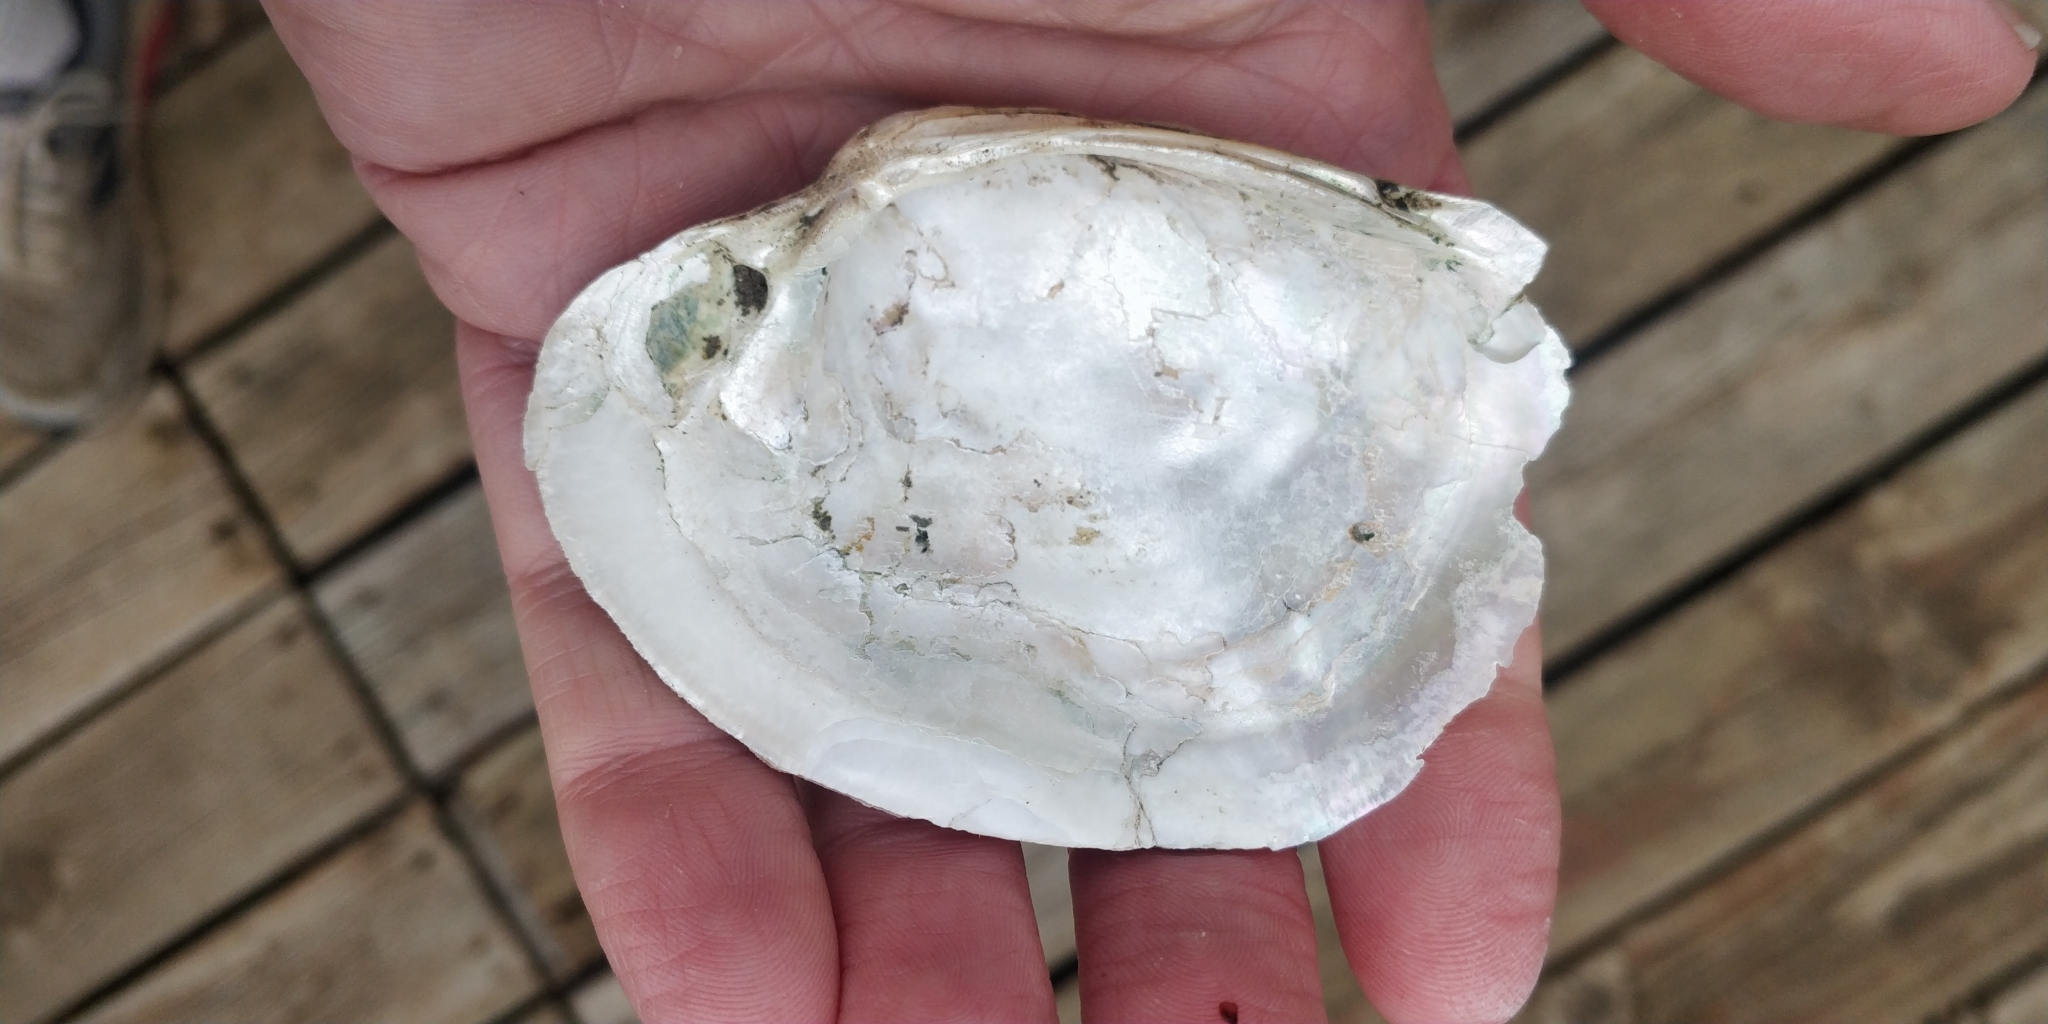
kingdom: Animalia
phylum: Mollusca
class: Bivalvia
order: Unionida
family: Unionidae
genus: Lampsilis
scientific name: Lampsilis cardium
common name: Plain pocketbook
